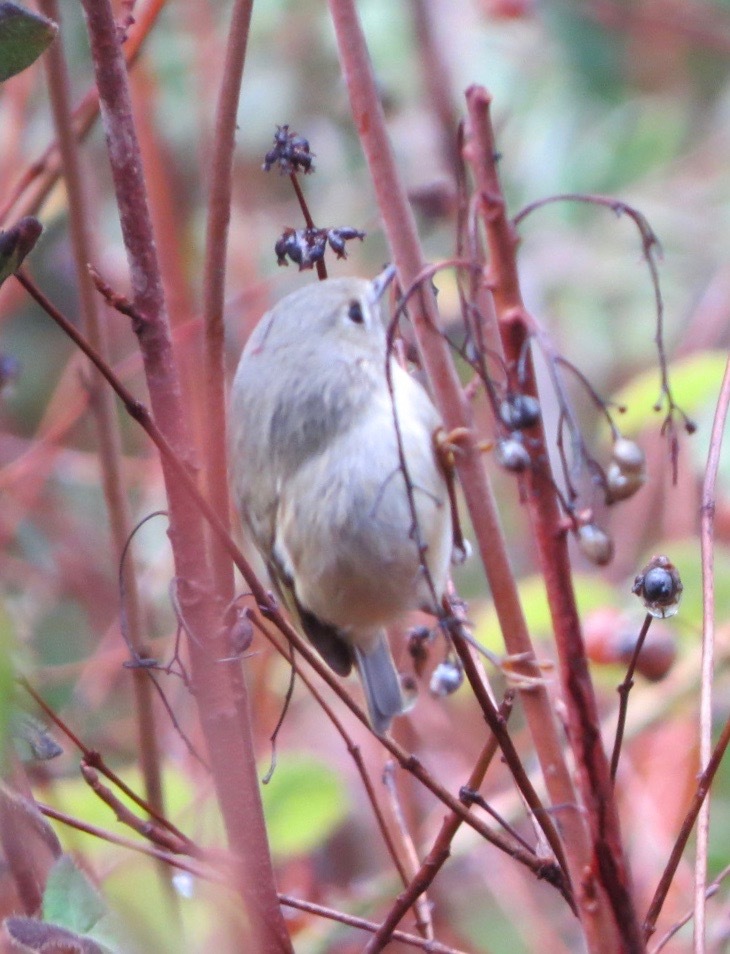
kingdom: Animalia
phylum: Chordata
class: Aves
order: Passeriformes
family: Regulidae
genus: Regulus
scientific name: Regulus calendula
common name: Ruby-crowned kinglet
